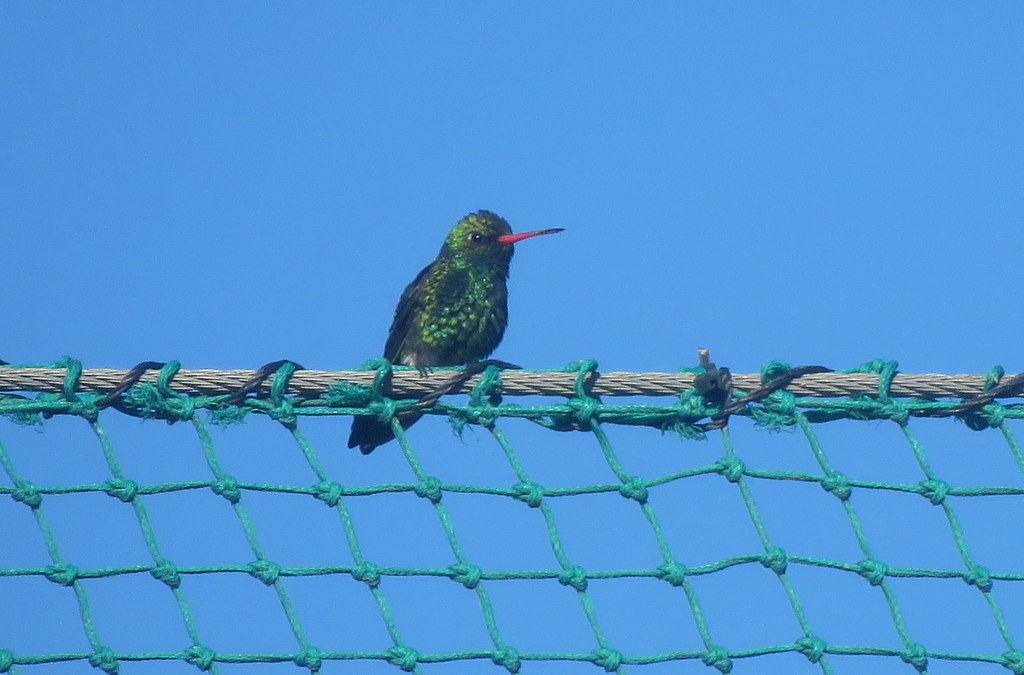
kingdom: Animalia
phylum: Chordata
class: Aves
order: Apodiformes
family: Trochilidae
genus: Chlorostilbon
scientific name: Chlorostilbon lucidus
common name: Glittering-bellied emerald
